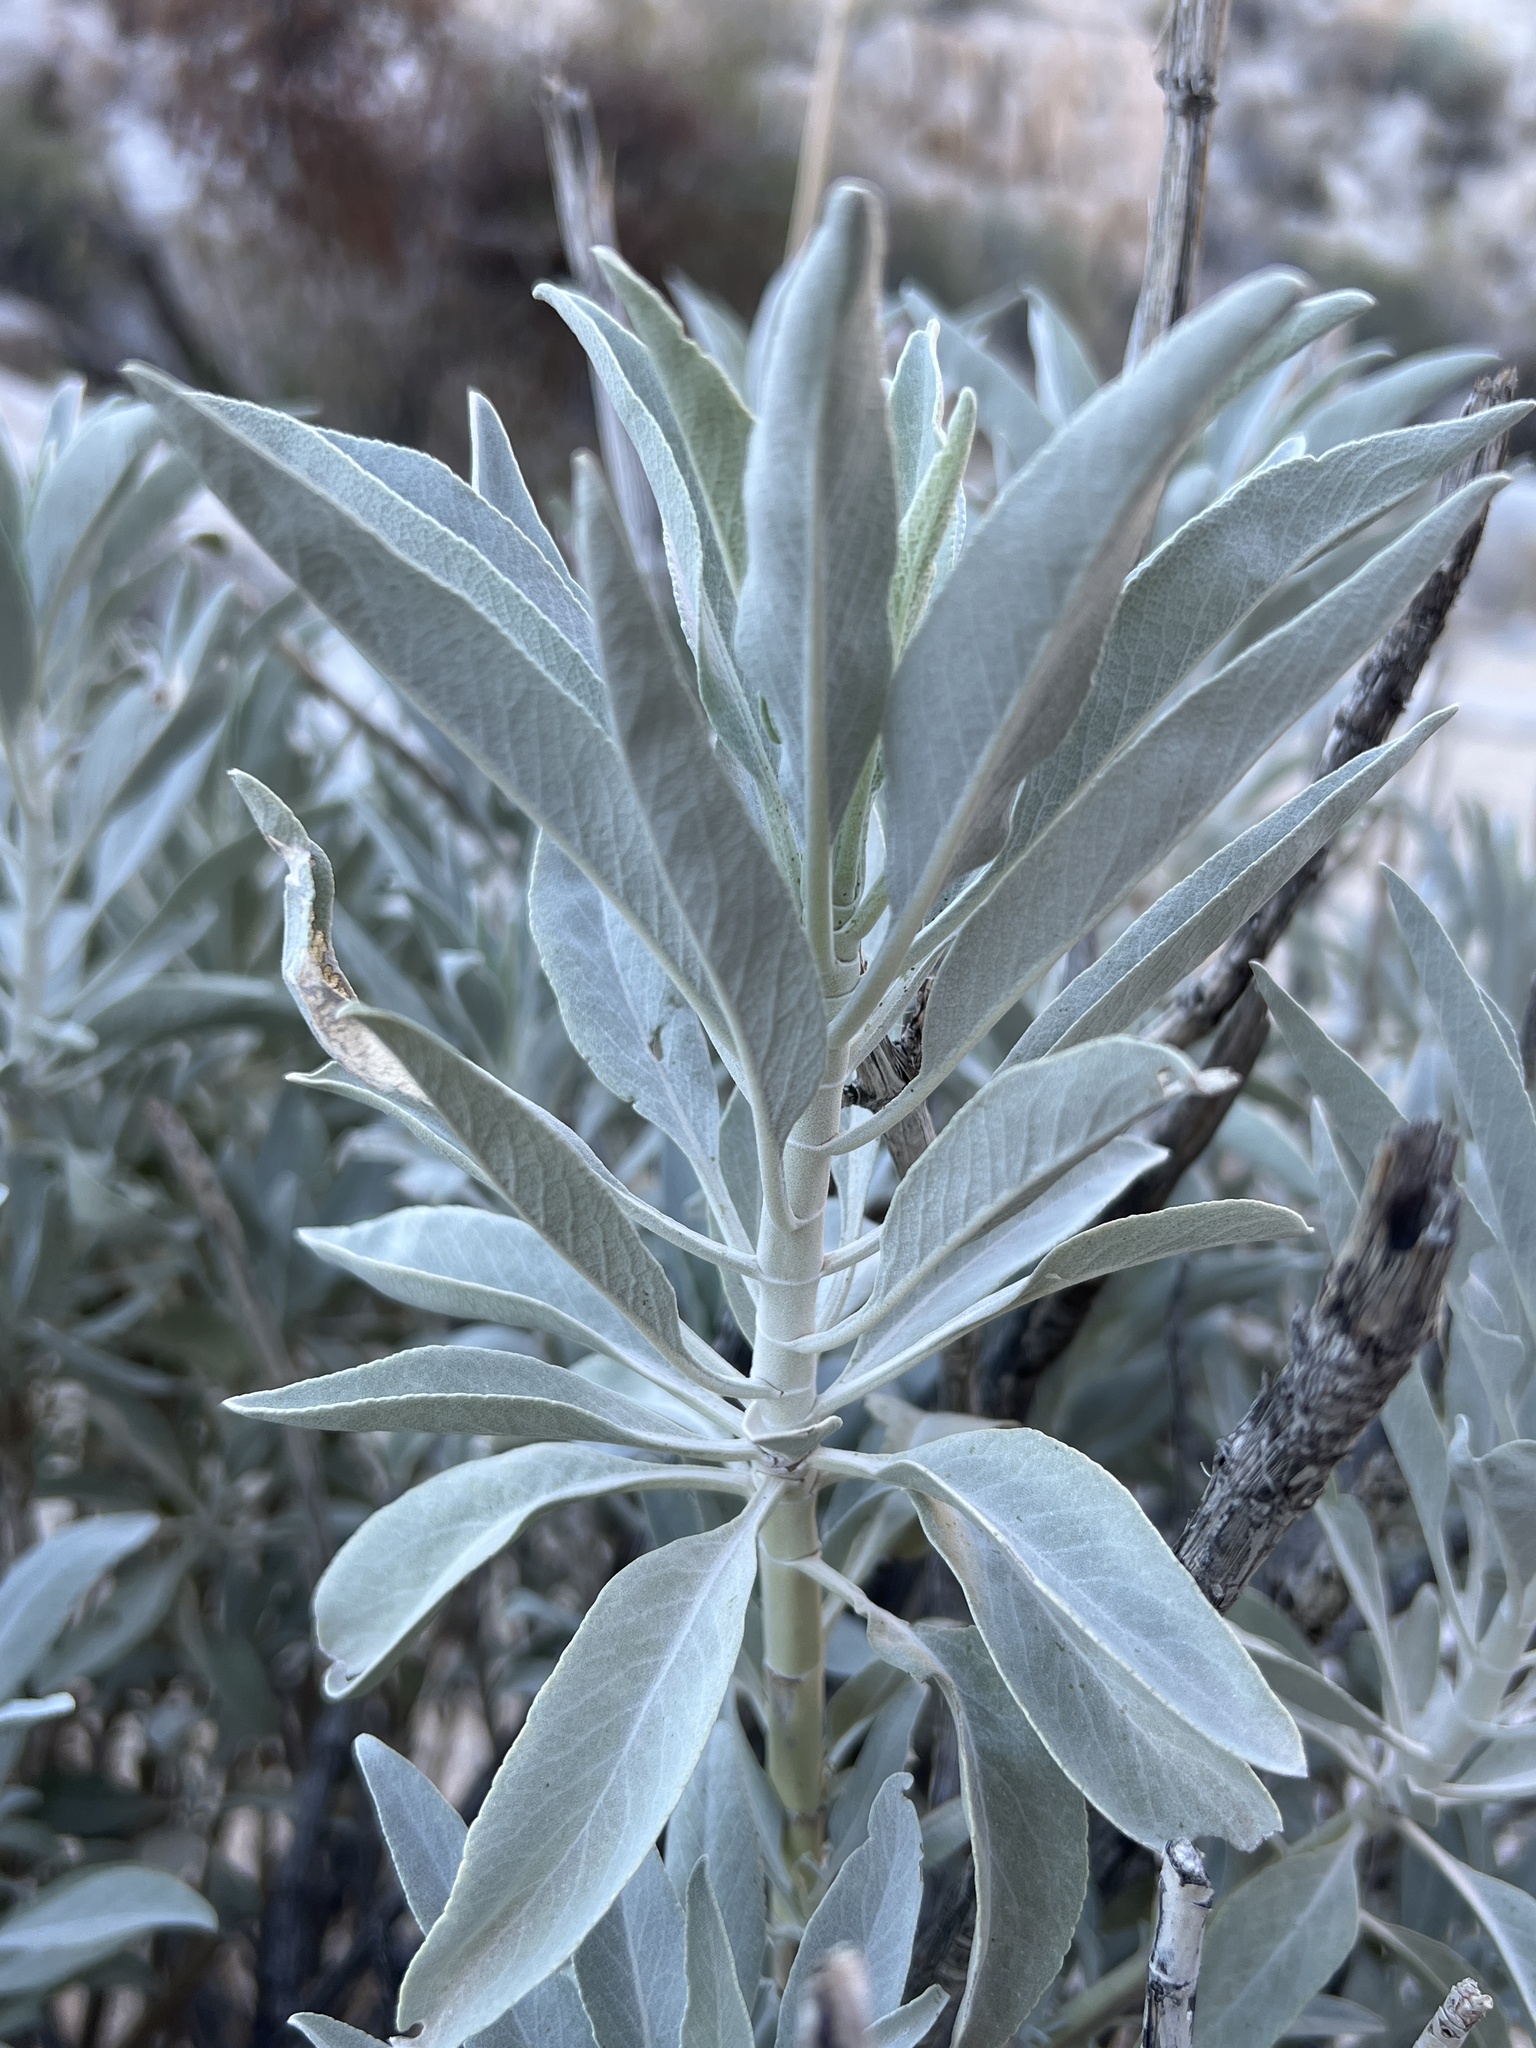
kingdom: Plantae
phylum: Tracheophyta
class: Magnoliopsida
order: Lamiales
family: Lamiaceae
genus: Salvia
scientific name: Salvia apiana
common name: White sage
